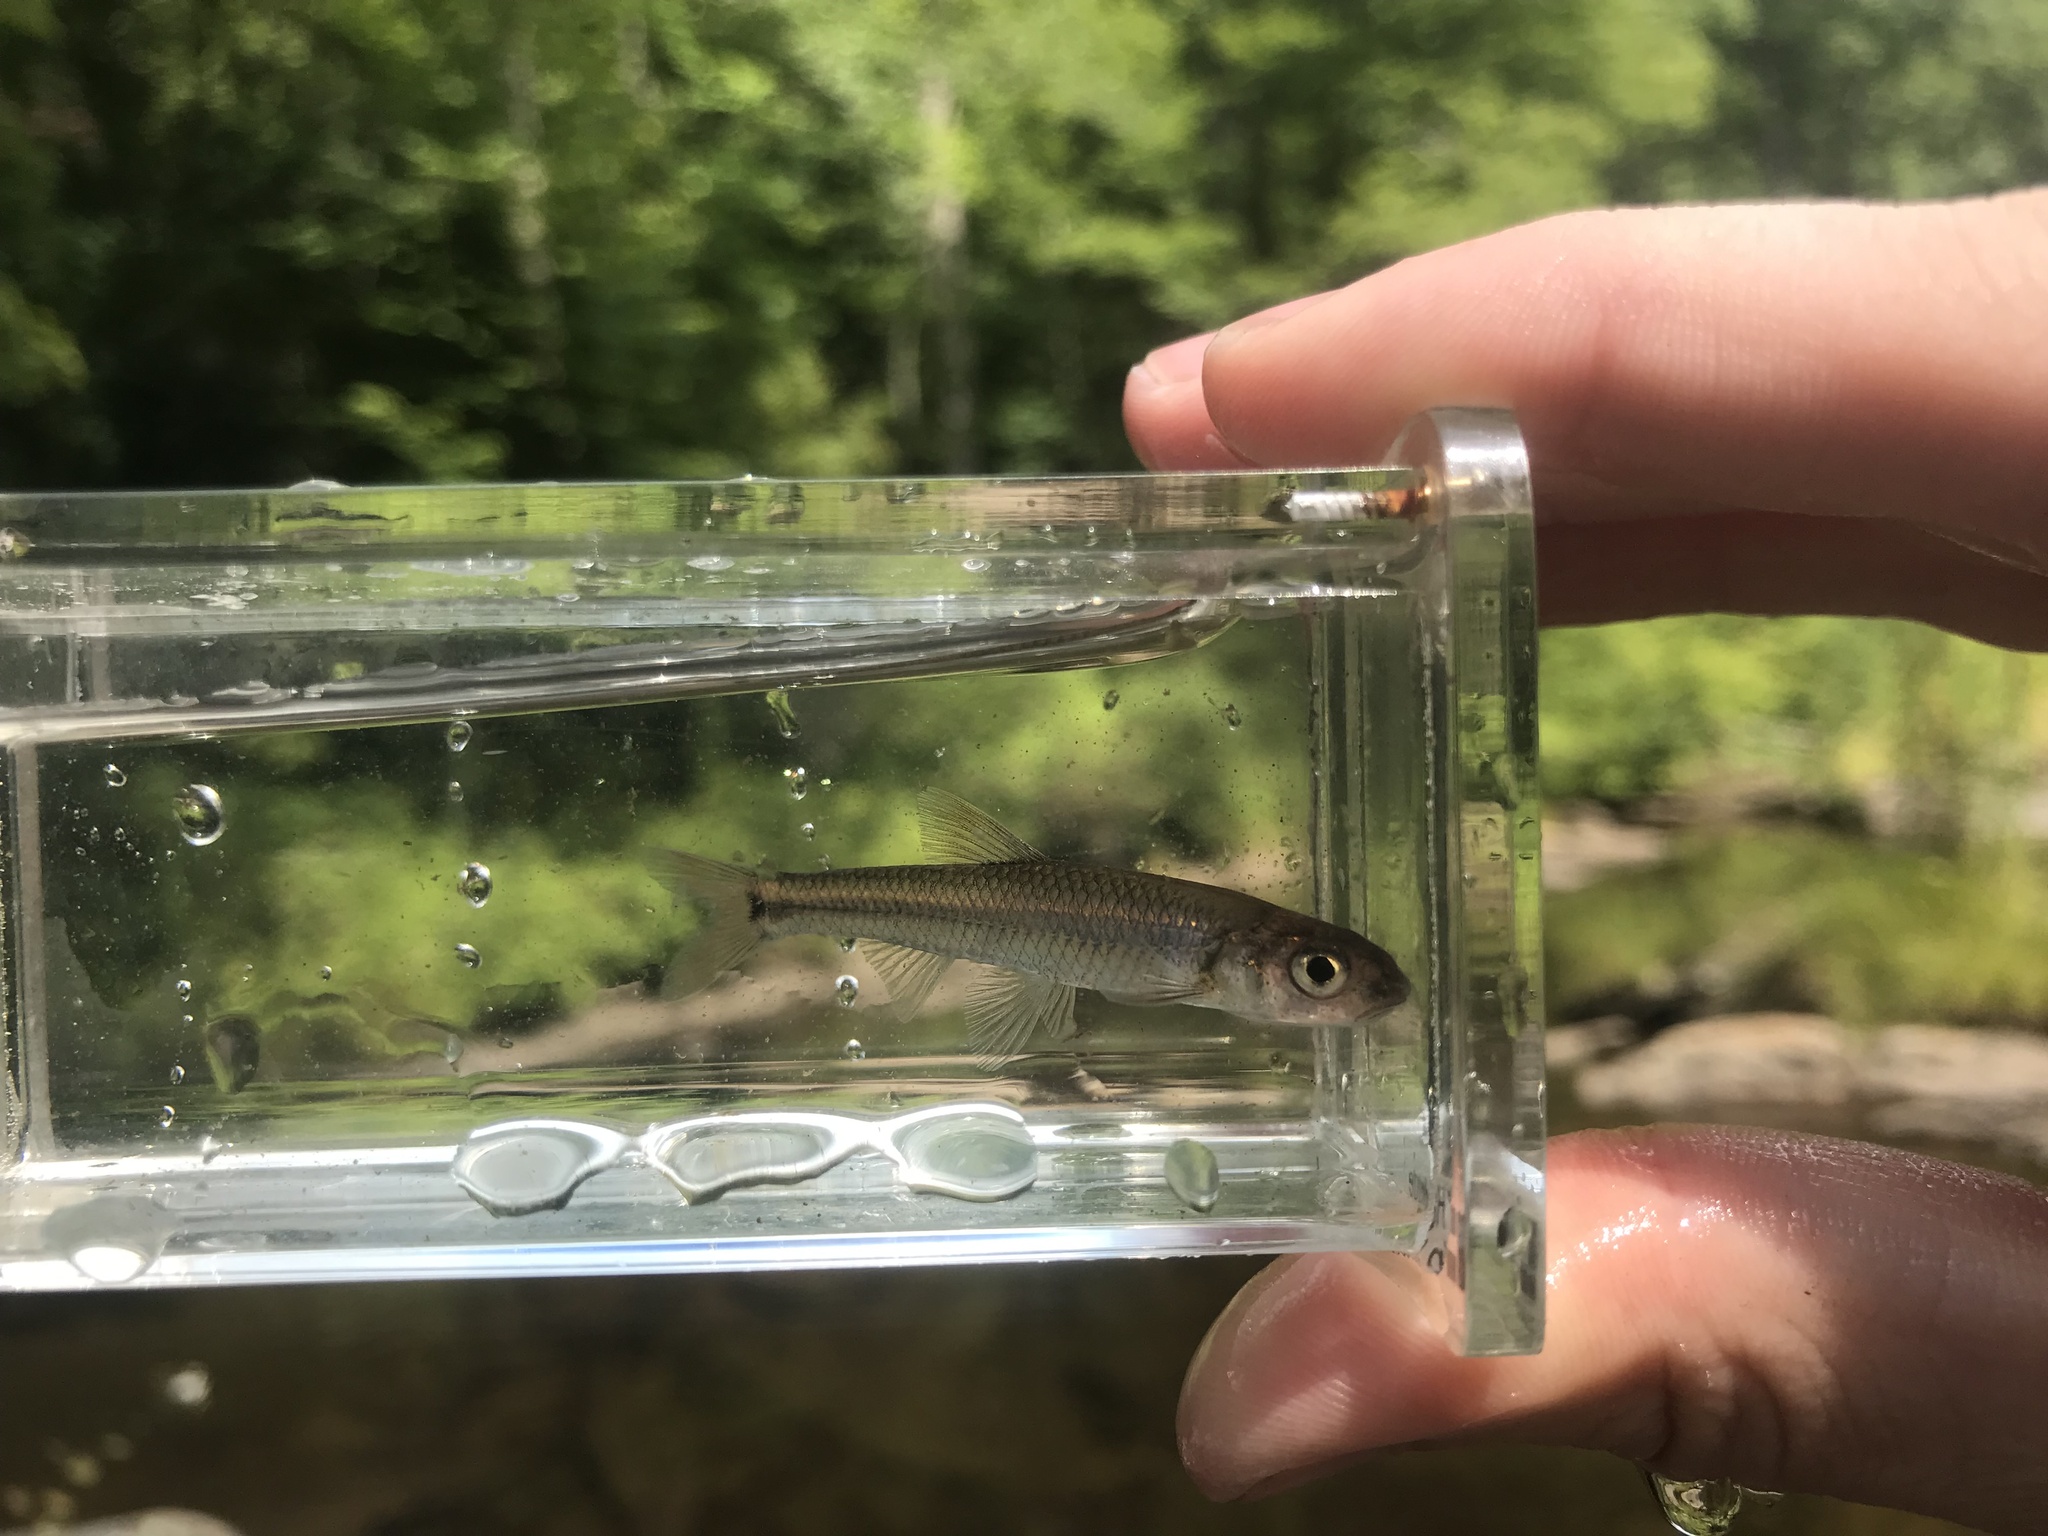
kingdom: Animalia
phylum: Chordata
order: Cypriniformes
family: Cyprinidae
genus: Notropis
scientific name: Notropis
